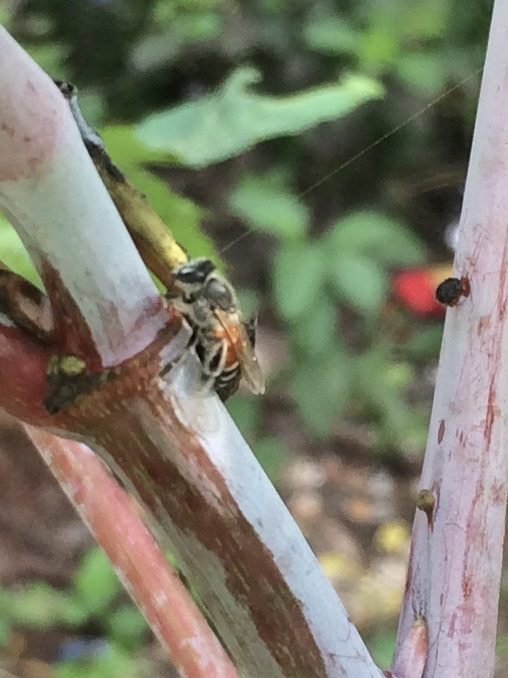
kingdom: Animalia
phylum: Arthropoda
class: Insecta
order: Hymenoptera
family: Apidae
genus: Apis
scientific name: Apis florea
